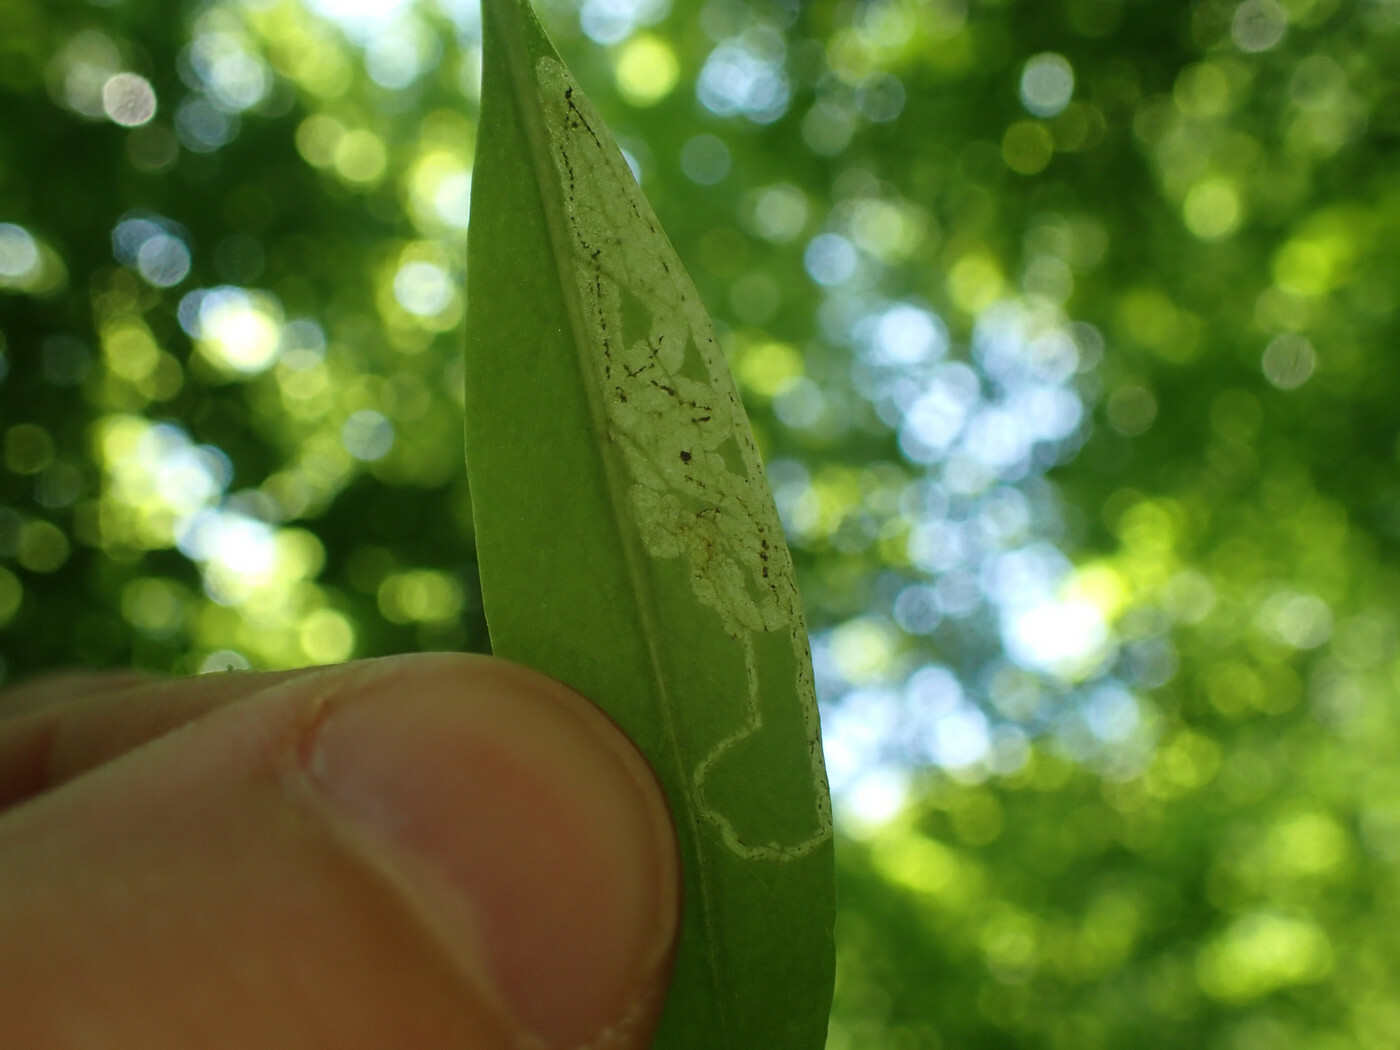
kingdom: Animalia
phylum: Arthropoda
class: Insecta
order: Diptera
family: Agromyzidae
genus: Liriomyza
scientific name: Liriomyza galiivora
